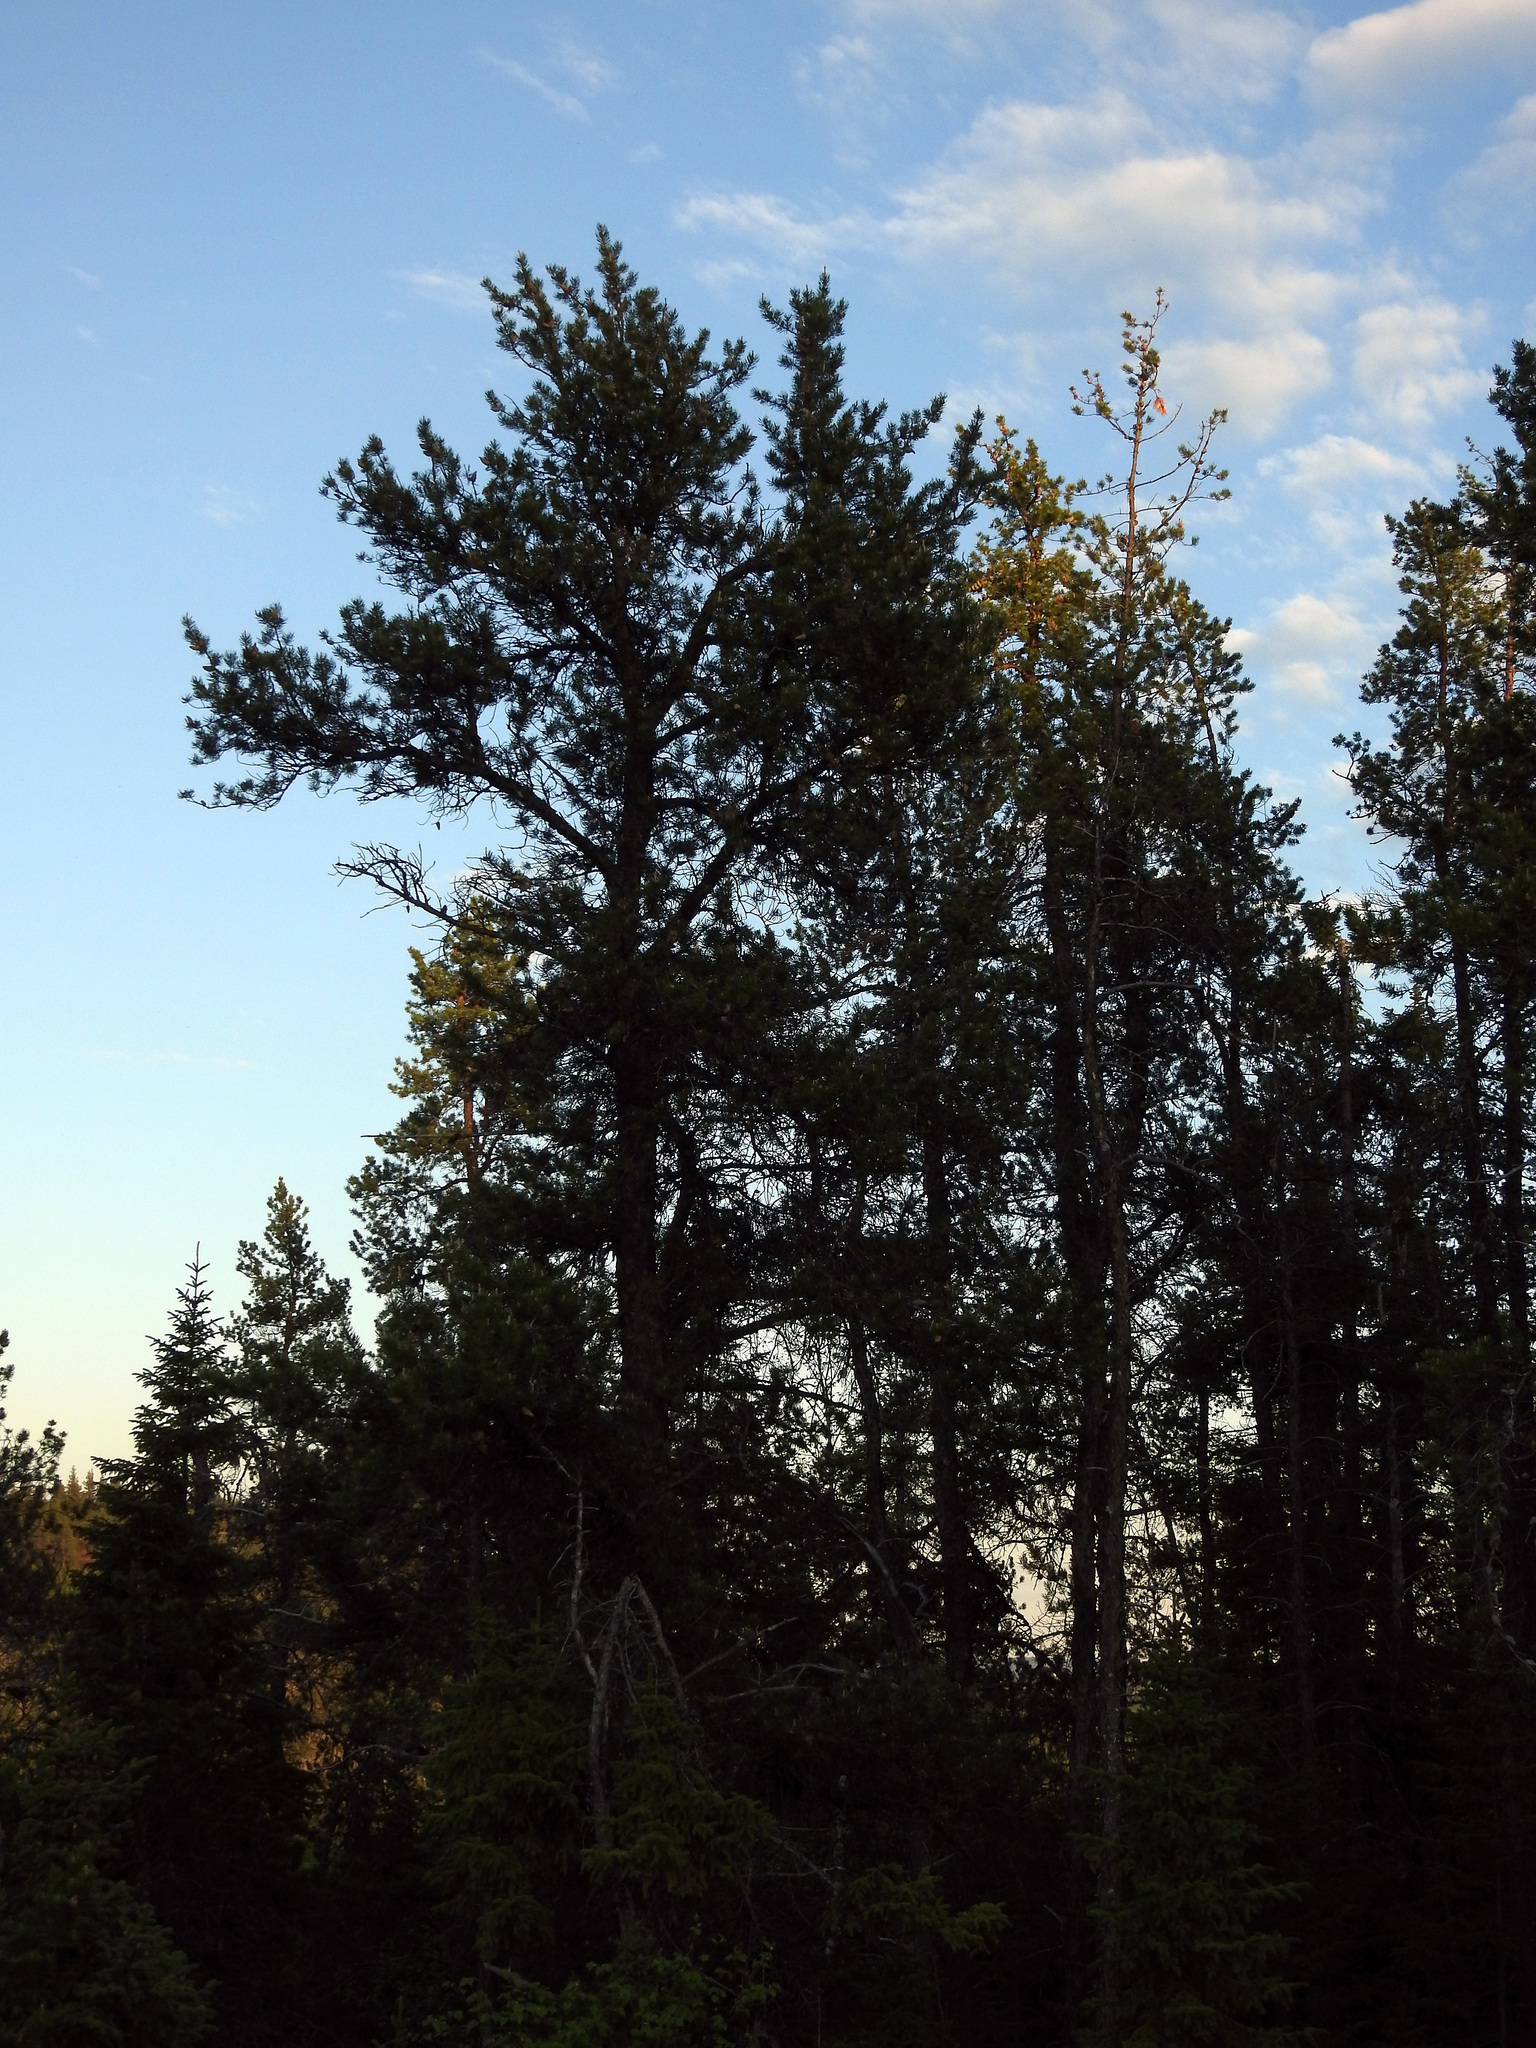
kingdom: Plantae
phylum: Tracheophyta
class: Pinopsida
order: Pinales
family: Pinaceae
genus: Pinus
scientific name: Pinus banksiana
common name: Jack pine
